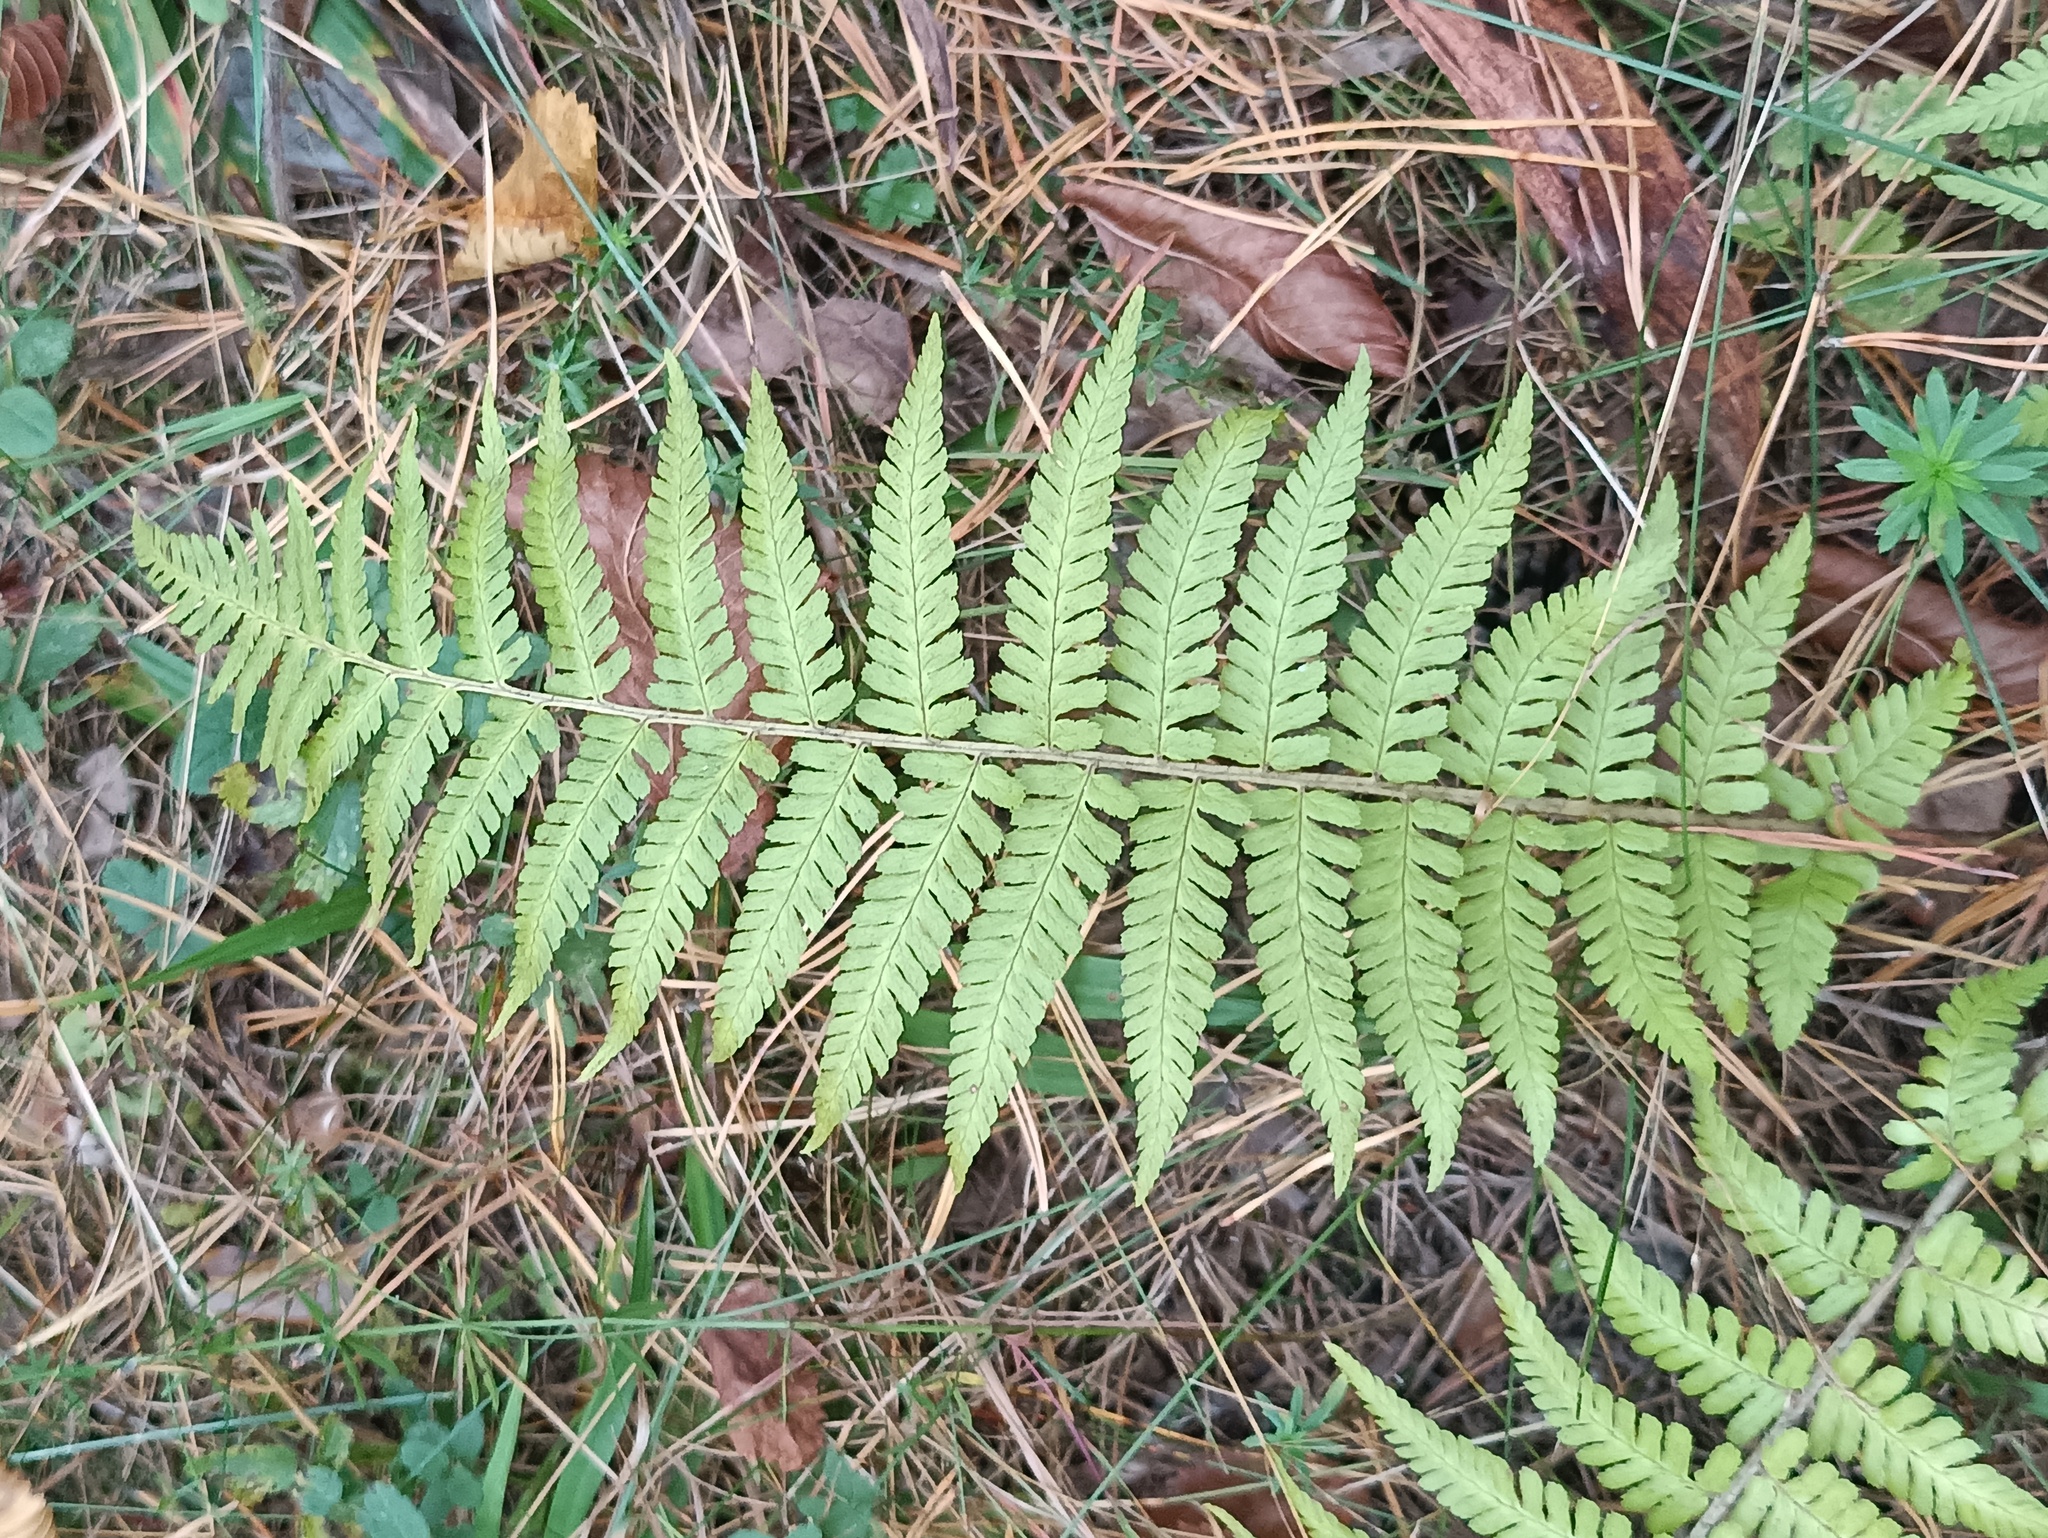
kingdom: Plantae
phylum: Tracheophyta
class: Polypodiopsida
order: Polypodiales
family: Dryopteridaceae
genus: Dryopteris
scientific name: Dryopteris filix-mas
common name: Male fern
